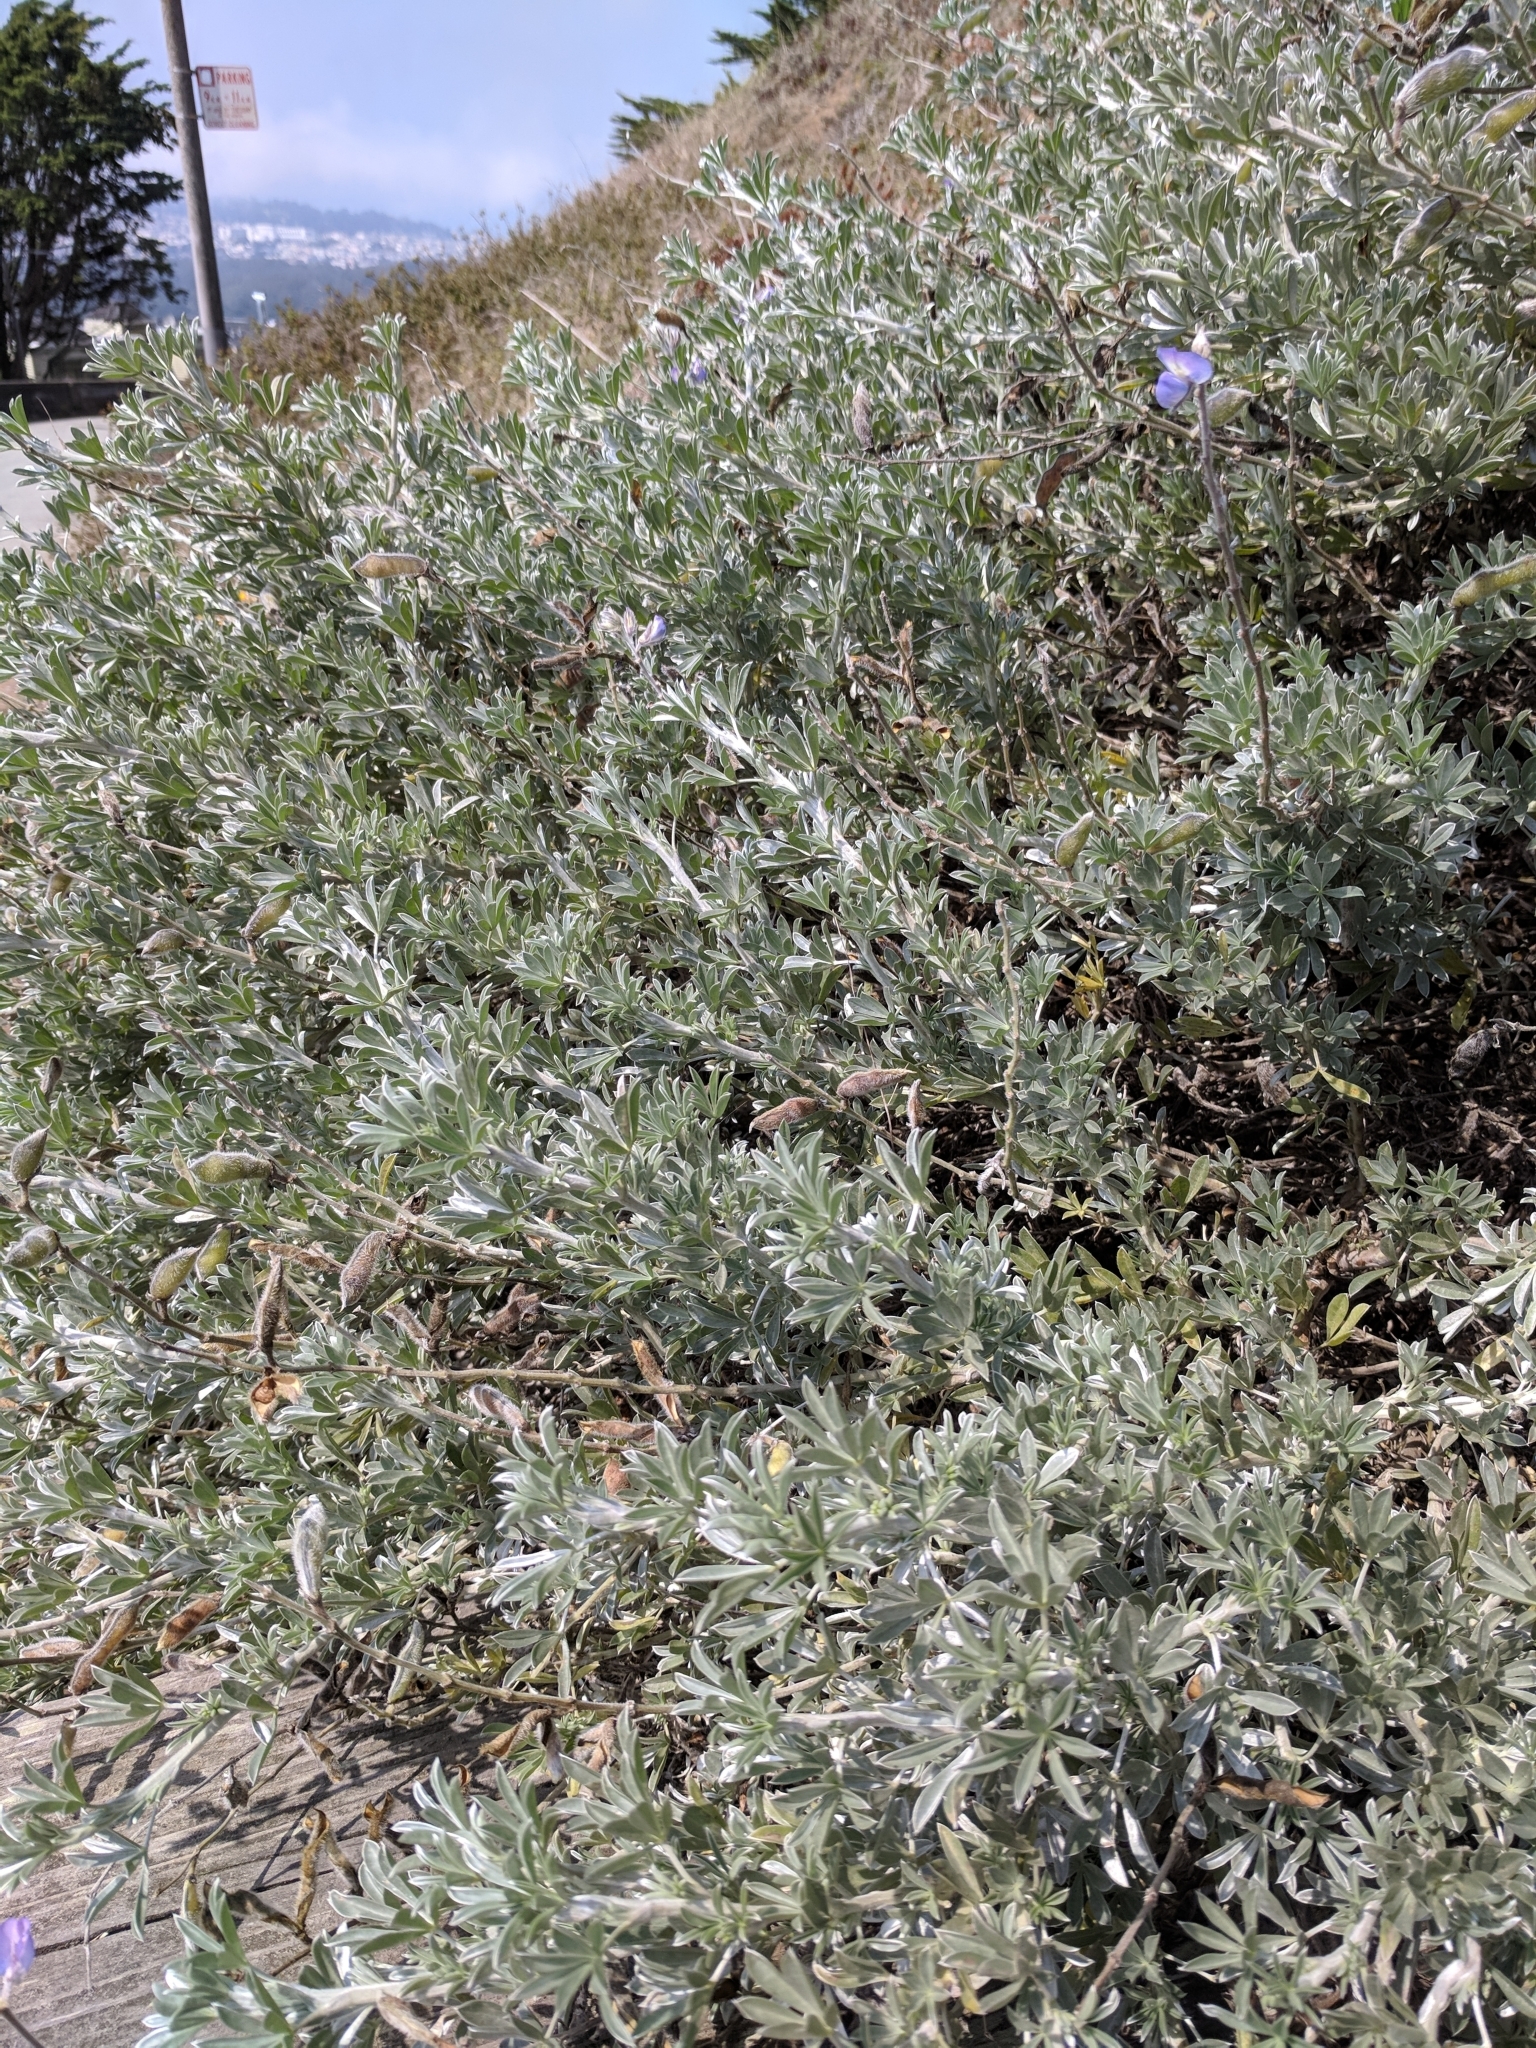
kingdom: Plantae
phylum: Tracheophyta
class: Magnoliopsida
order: Fabales
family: Fabaceae
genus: Lupinus
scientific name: Lupinus chamissonis
